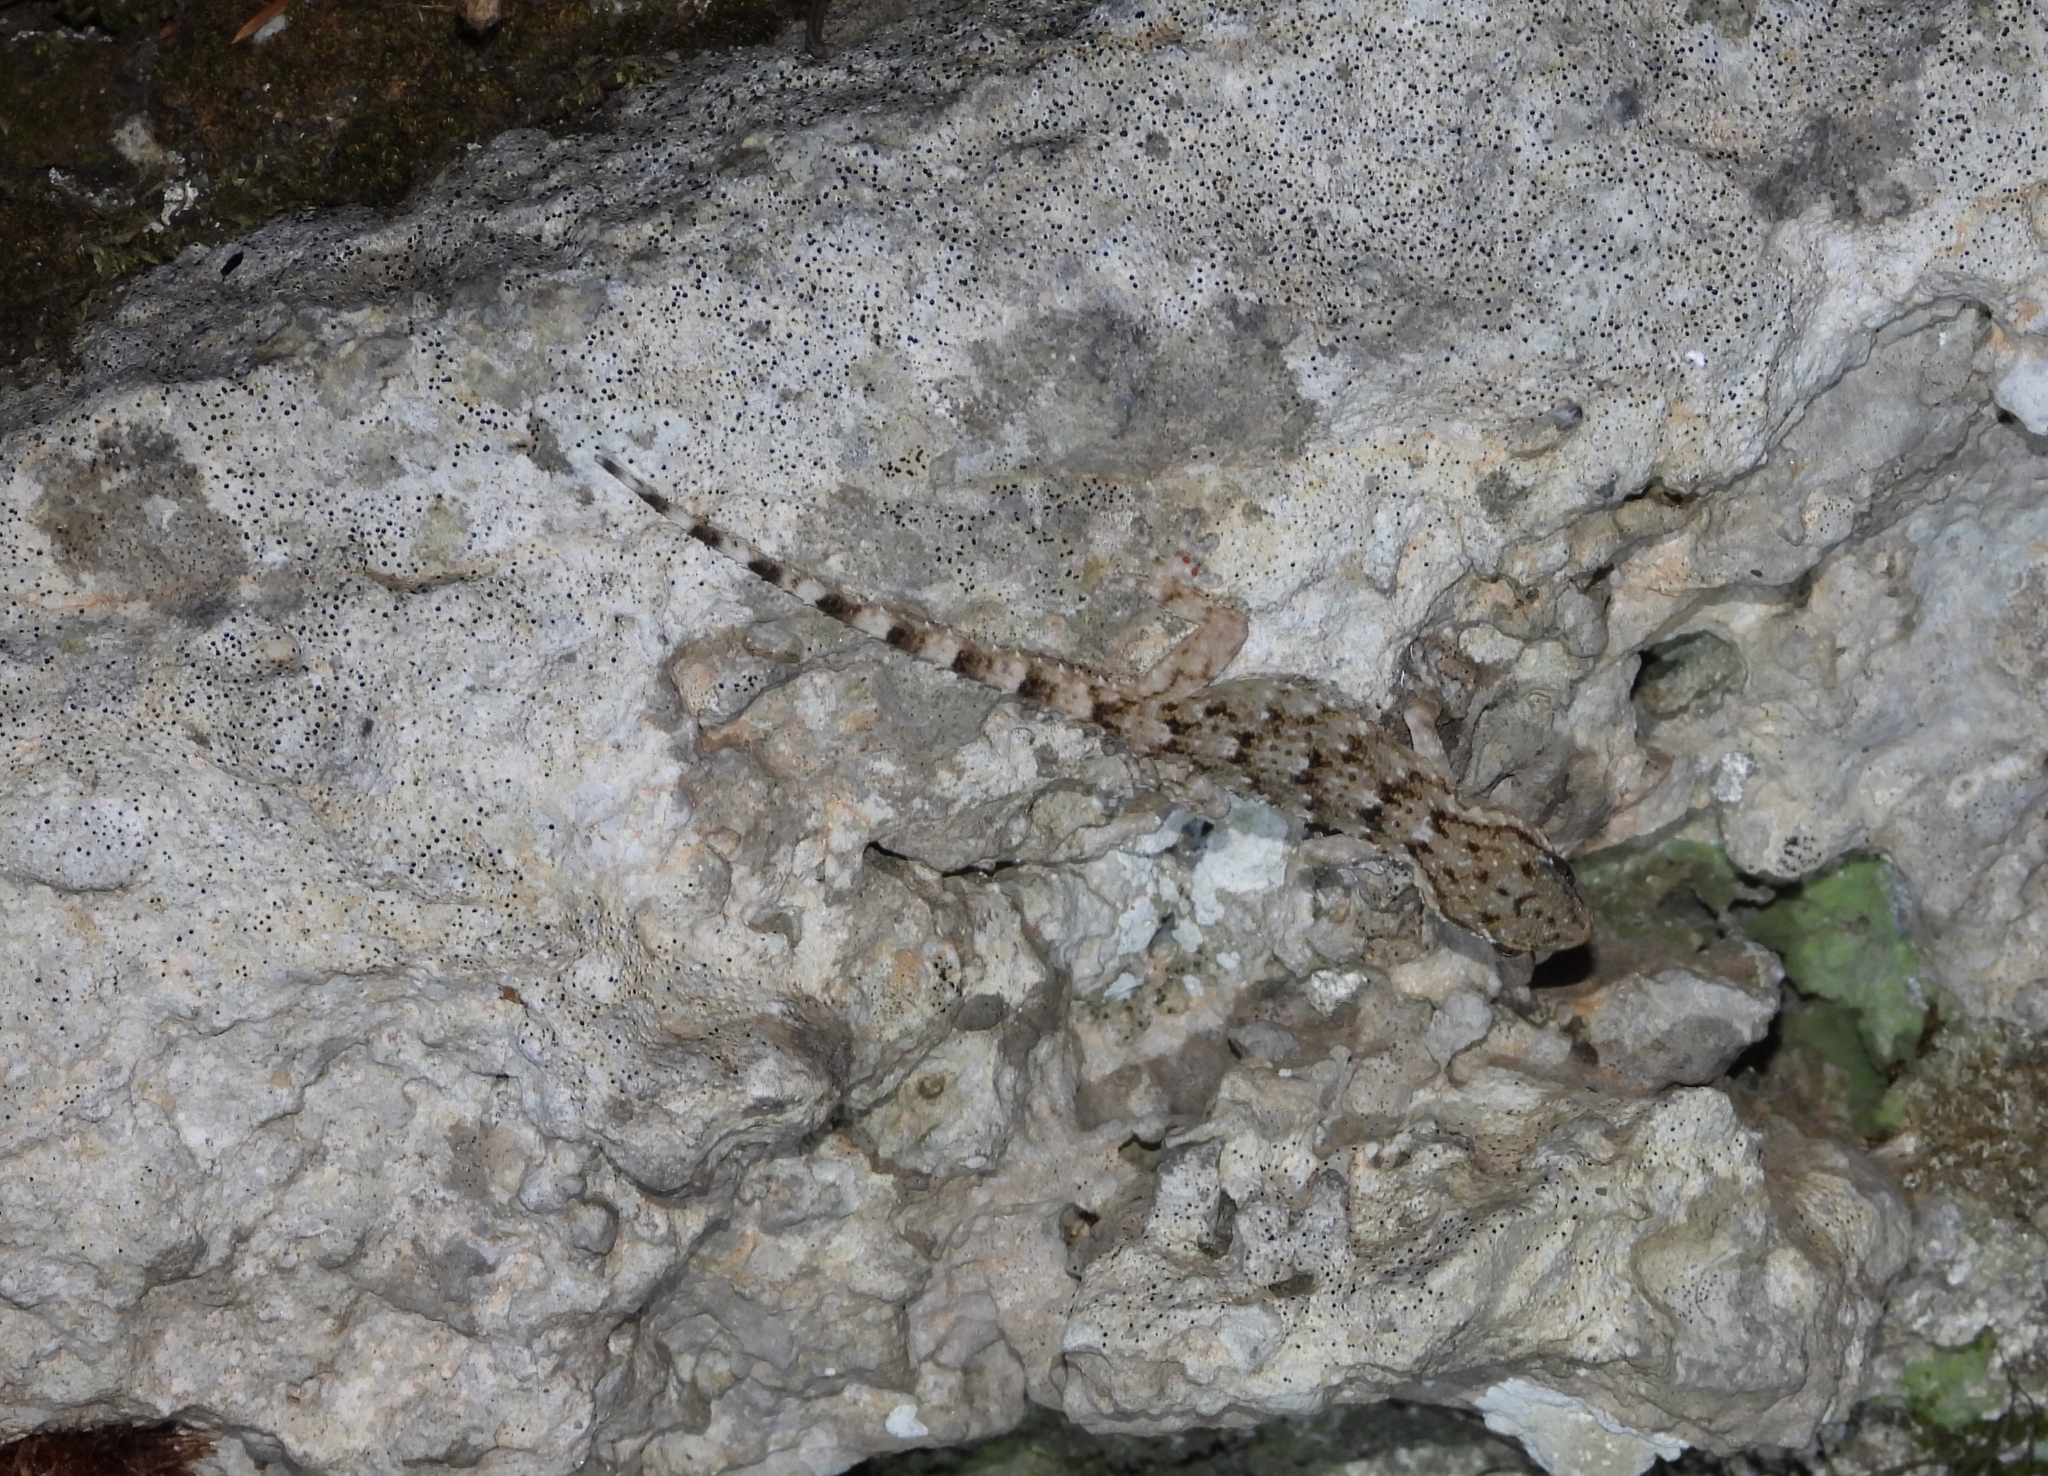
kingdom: Animalia
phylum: Chordata
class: Squamata
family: Phyllodactylidae
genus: Tarentola
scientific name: Tarentola mauritanica
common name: Moorish gecko
